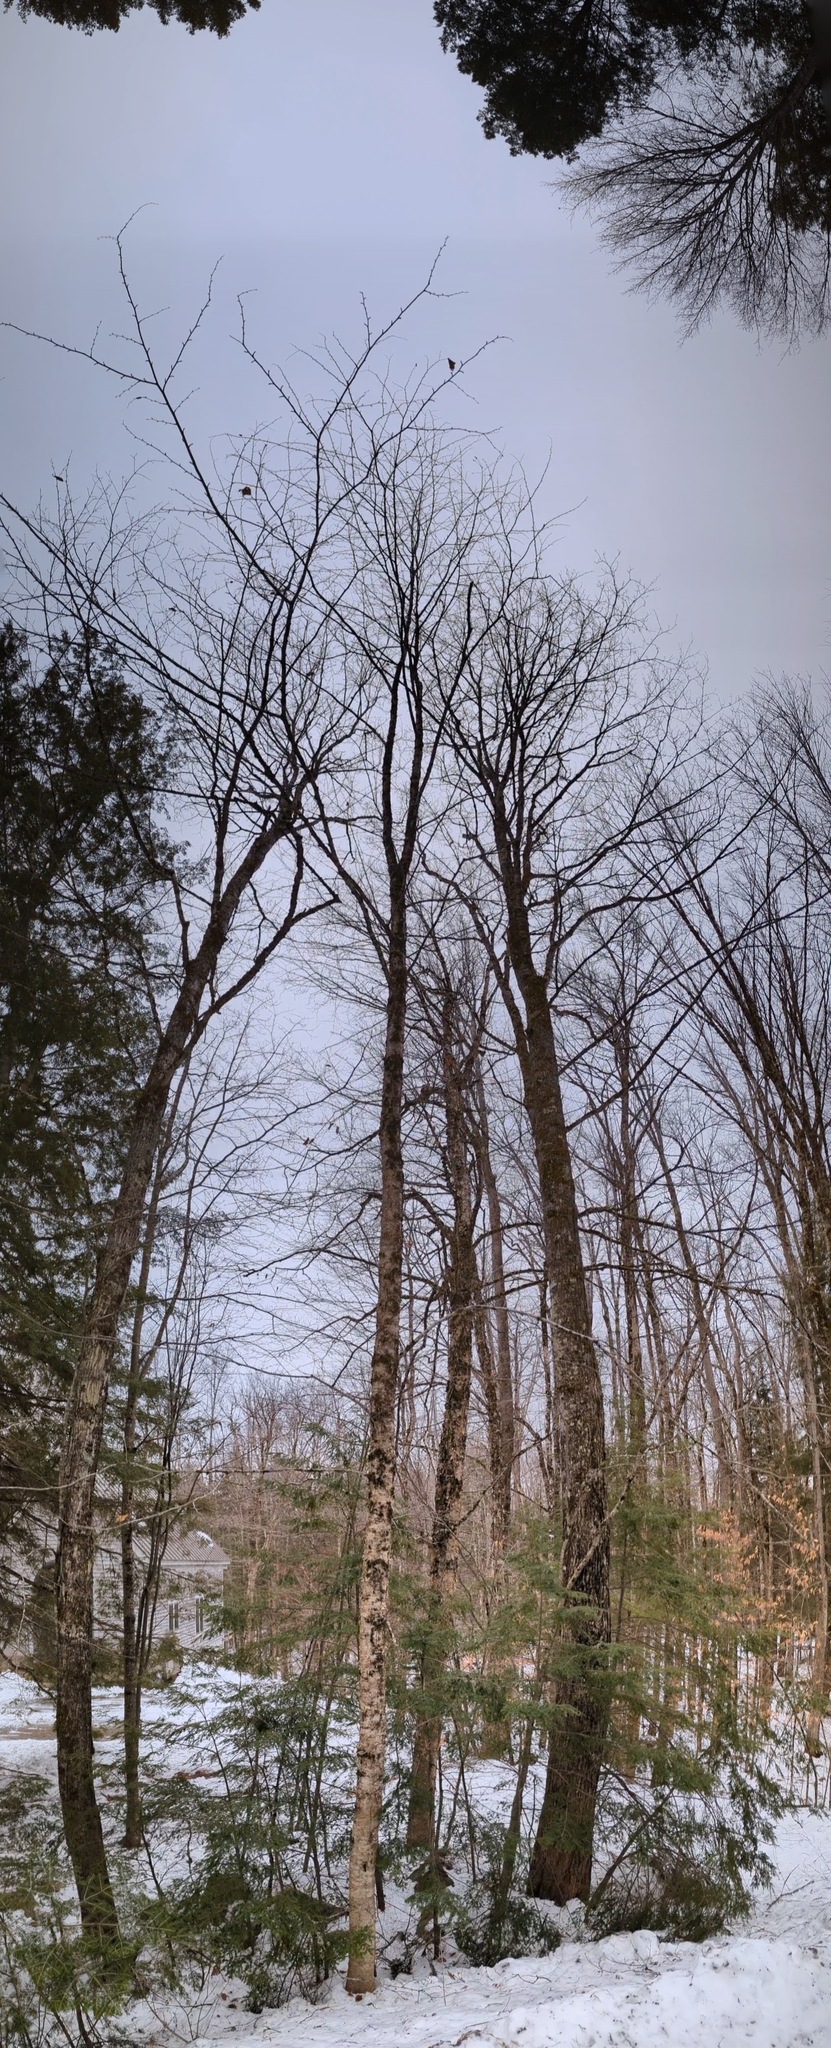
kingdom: Plantae
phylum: Tracheophyta
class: Magnoliopsida
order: Fagales
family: Betulaceae
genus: Betula
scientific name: Betula alleghaniensis
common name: Yellow birch
